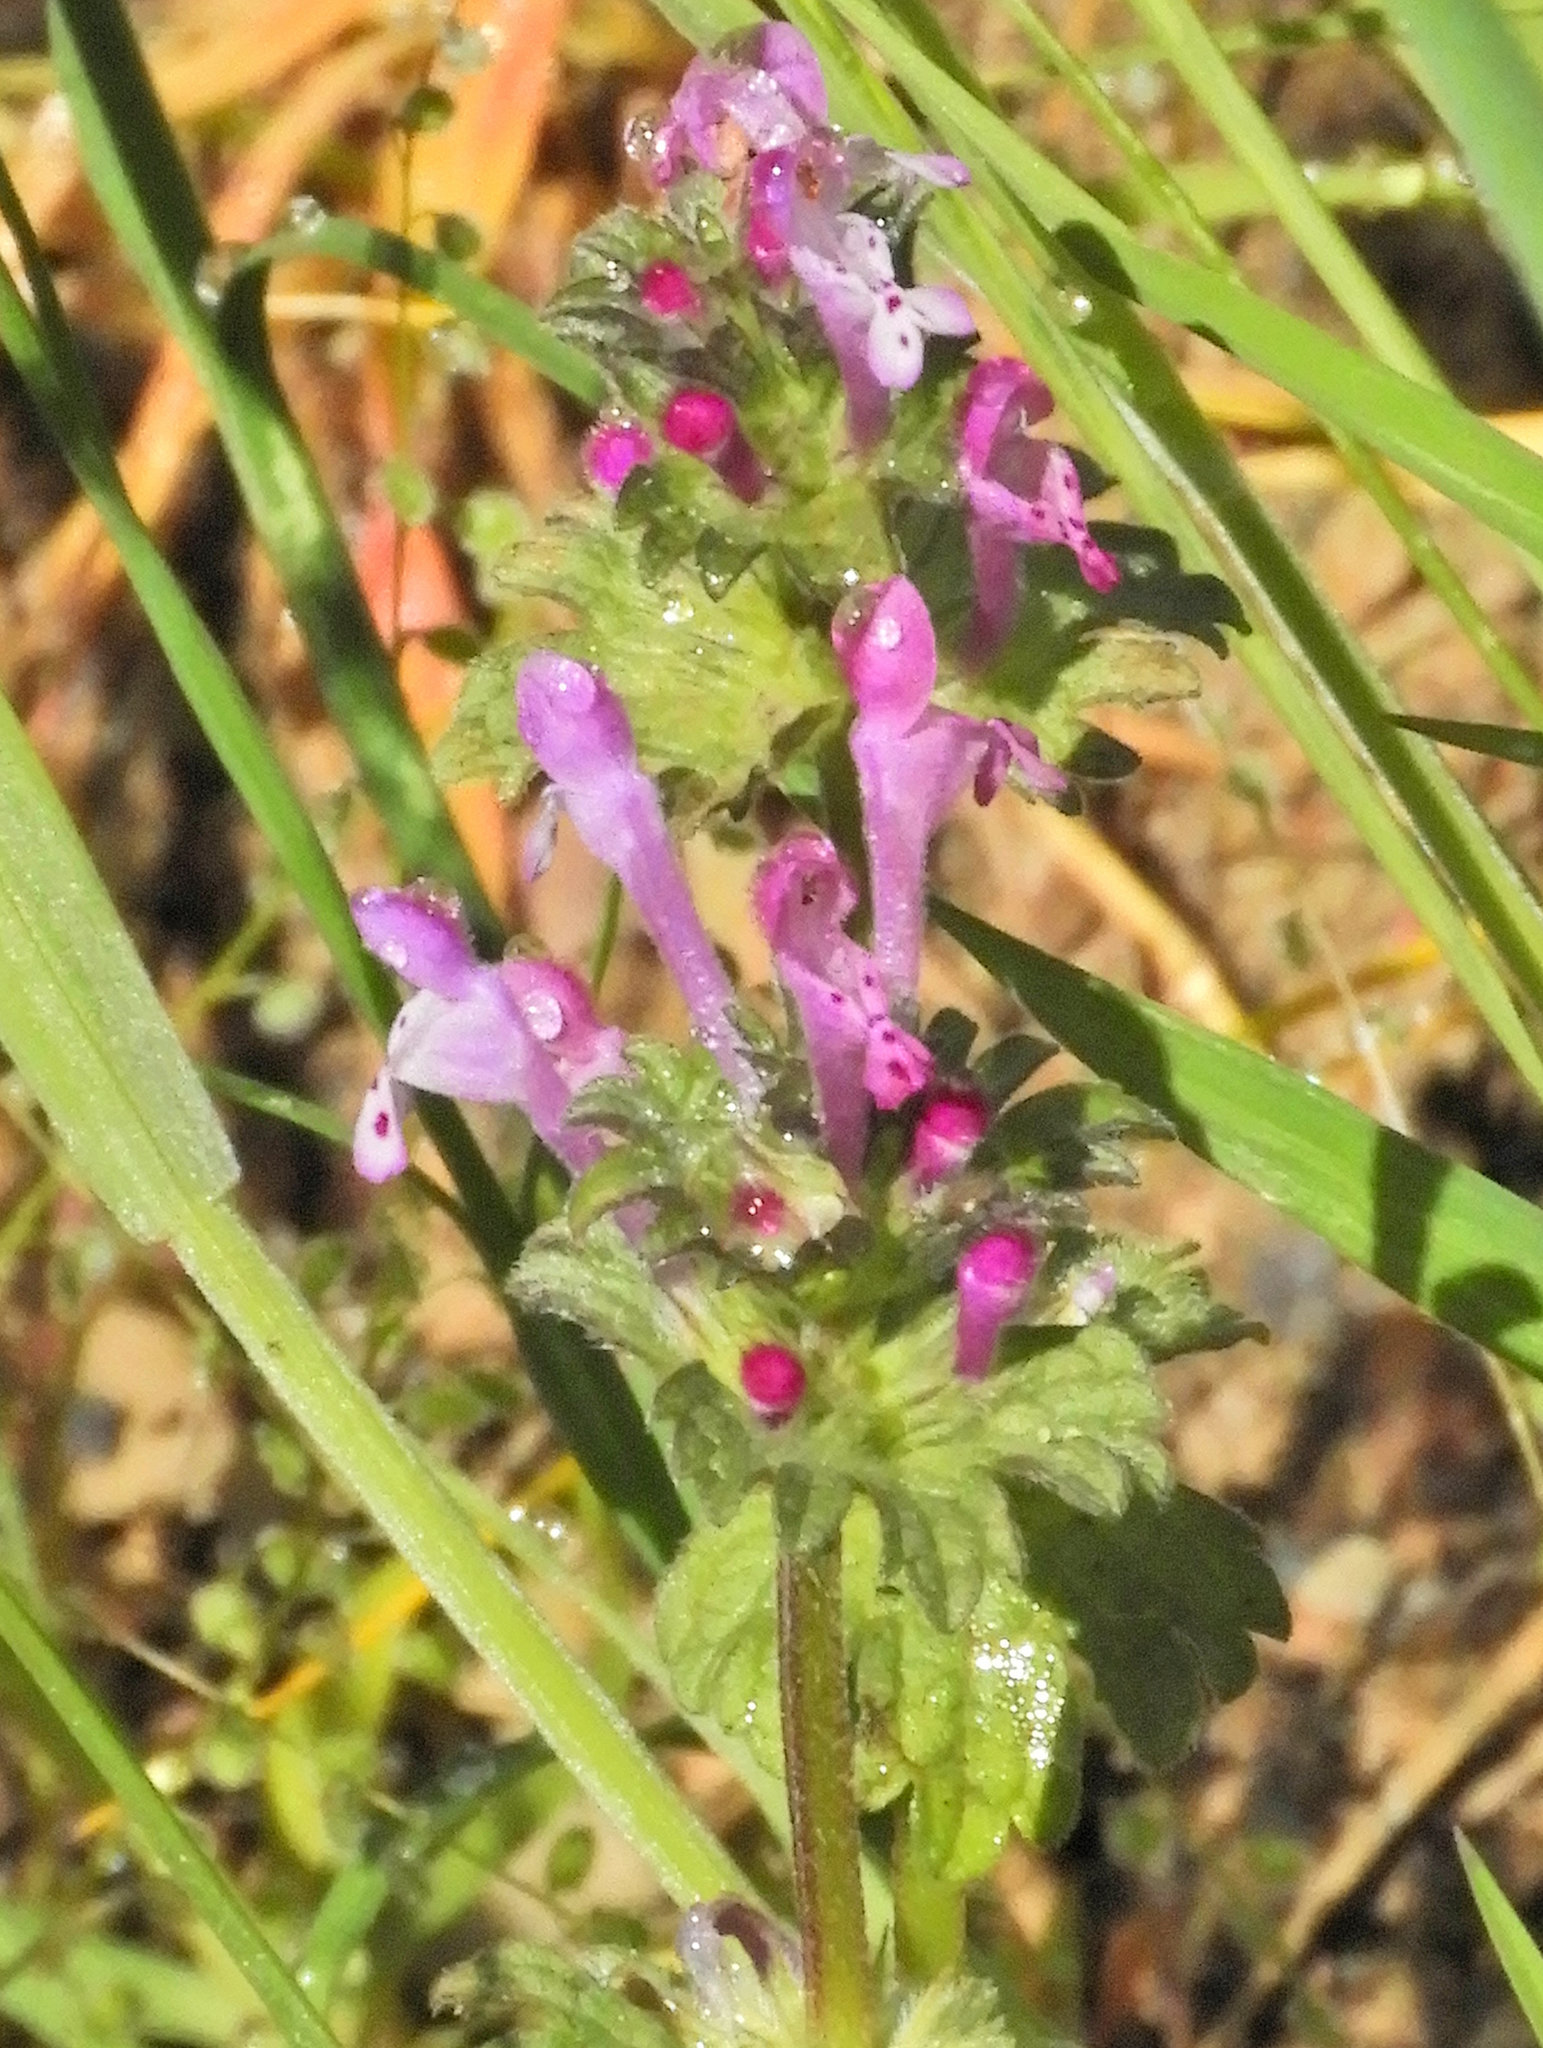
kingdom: Plantae
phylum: Tracheophyta
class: Magnoliopsida
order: Lamiales
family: Lamiaceae
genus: Lamium
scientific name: Lamium amplexicaule
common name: Henbit dead-nettle
